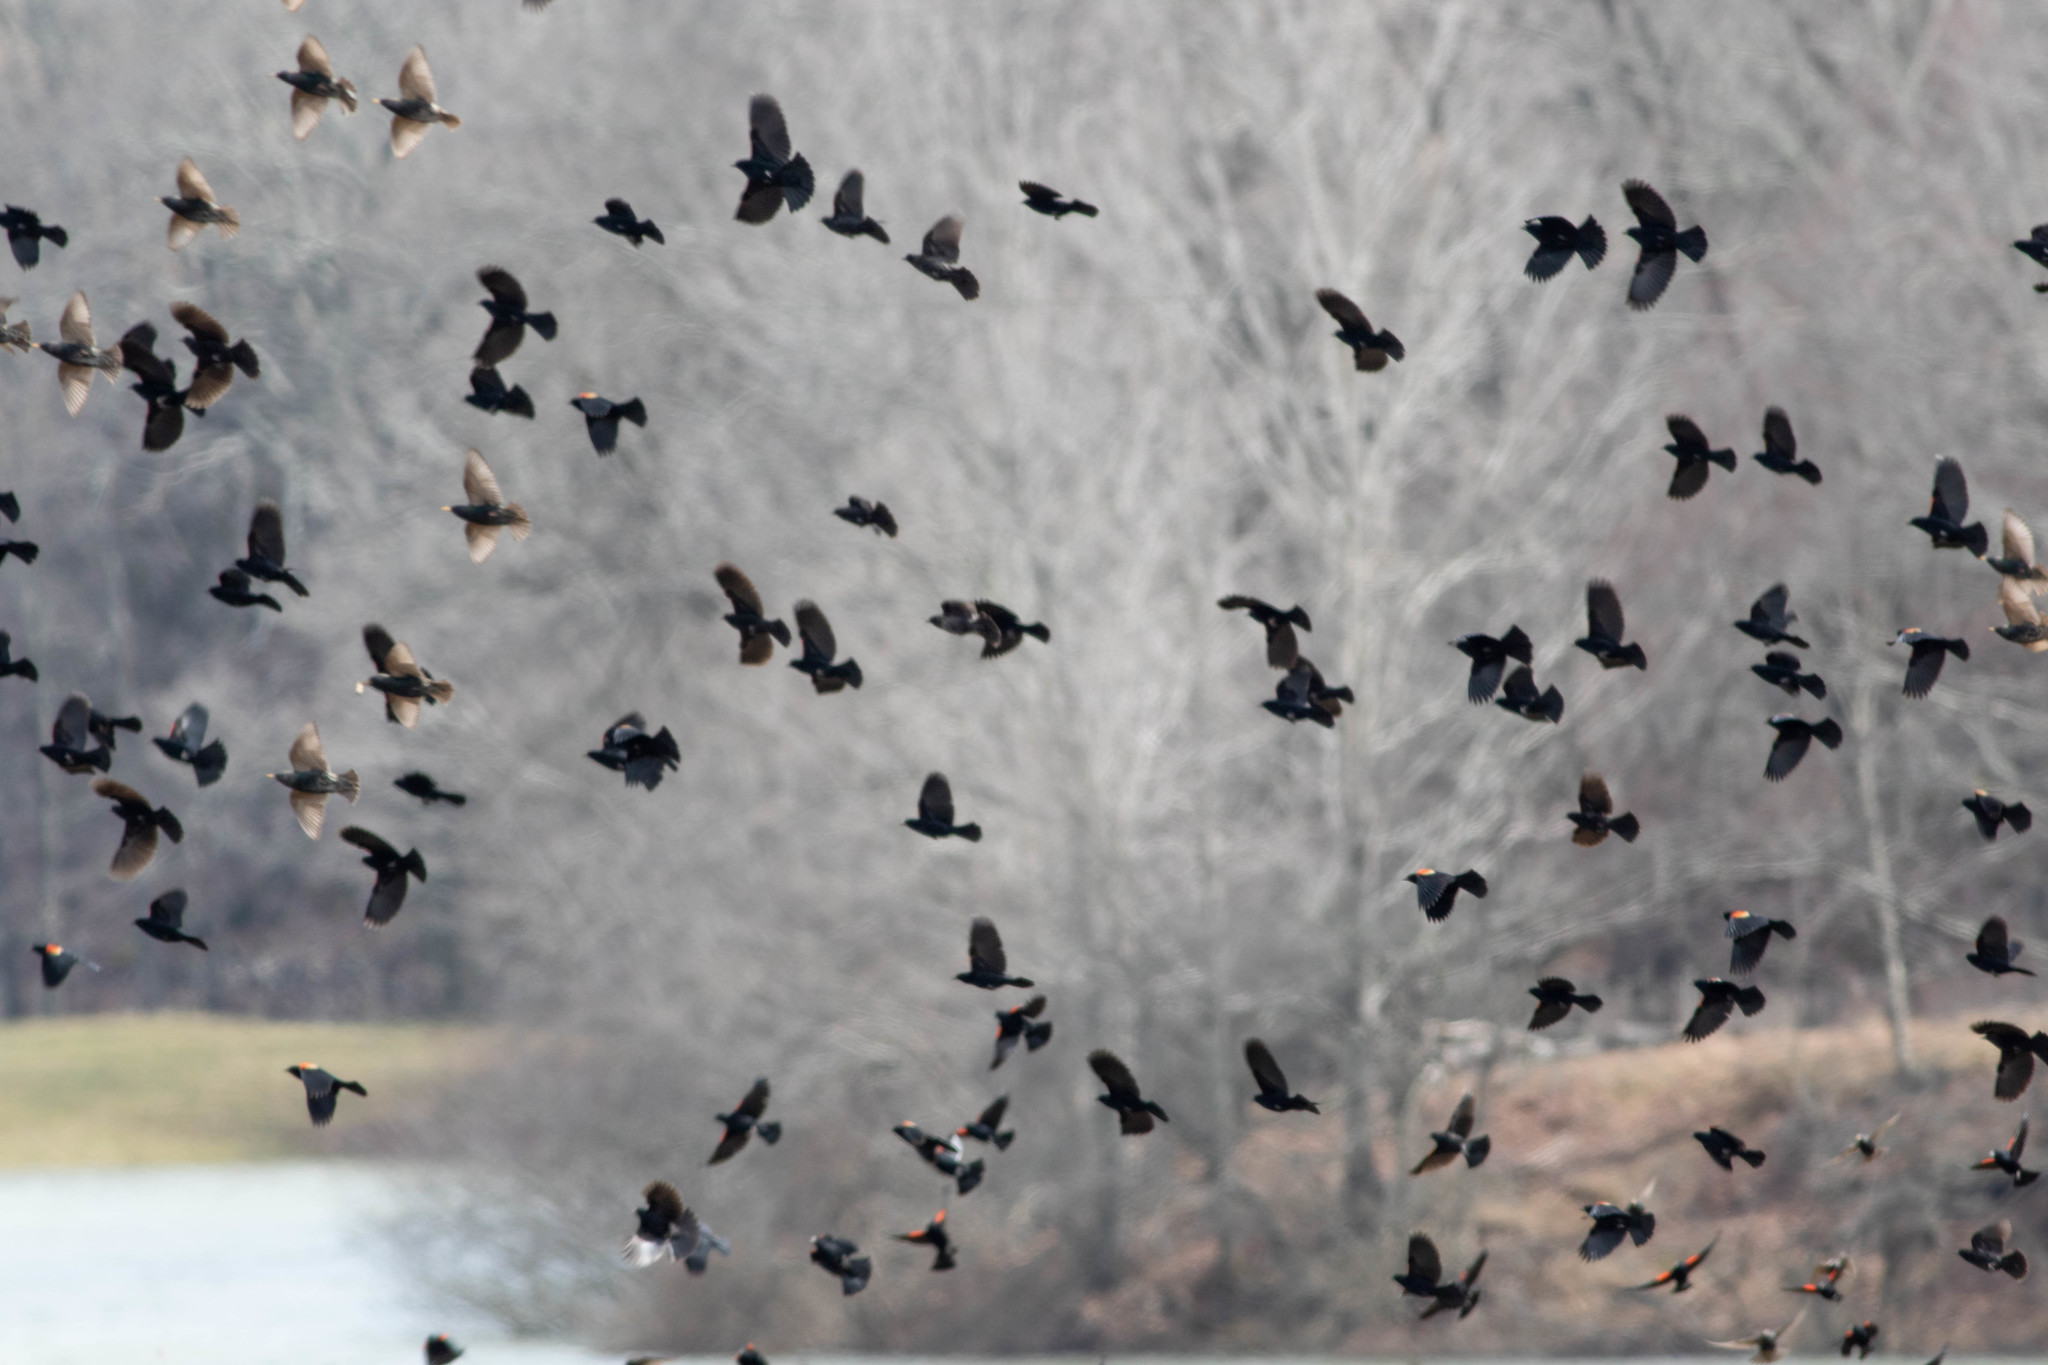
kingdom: Animalia
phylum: Chordata
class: Aves
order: Passeriformes
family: Icteridae
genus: Agelaius
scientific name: Agelaius phoeniceus
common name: Red-winged blackbird
